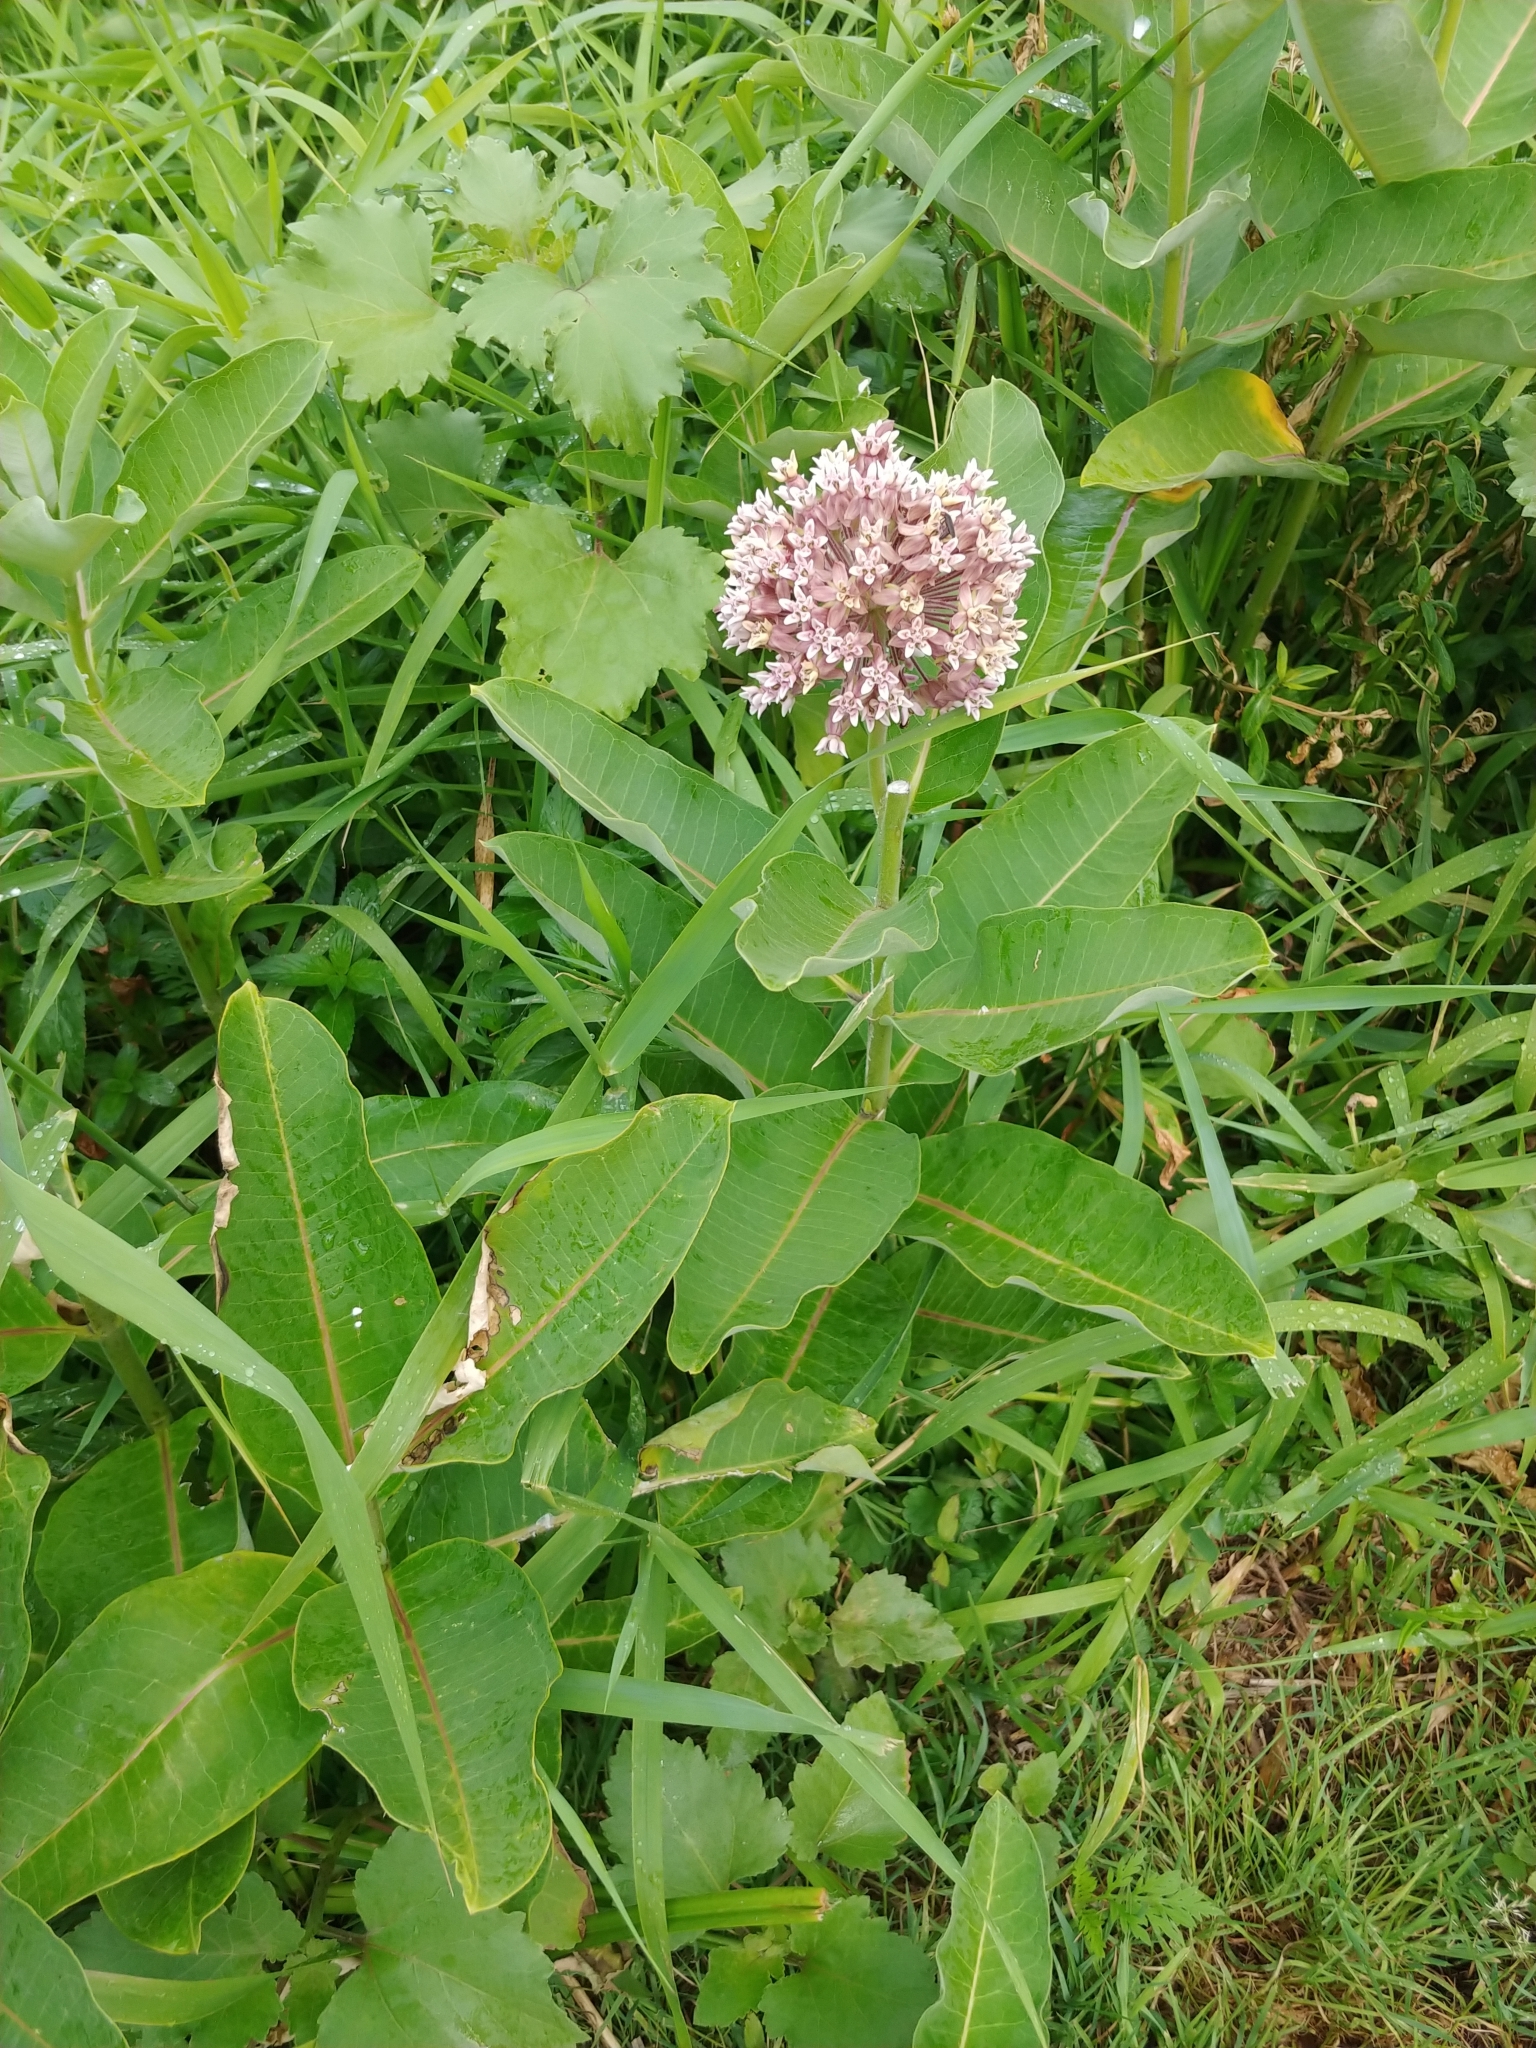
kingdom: Plantae
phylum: Tracheophyta
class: Magnoliopsida
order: Gentianales
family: Apocynaceae
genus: Asclepias
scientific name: Asclepias syriaca
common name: Common milkweed
